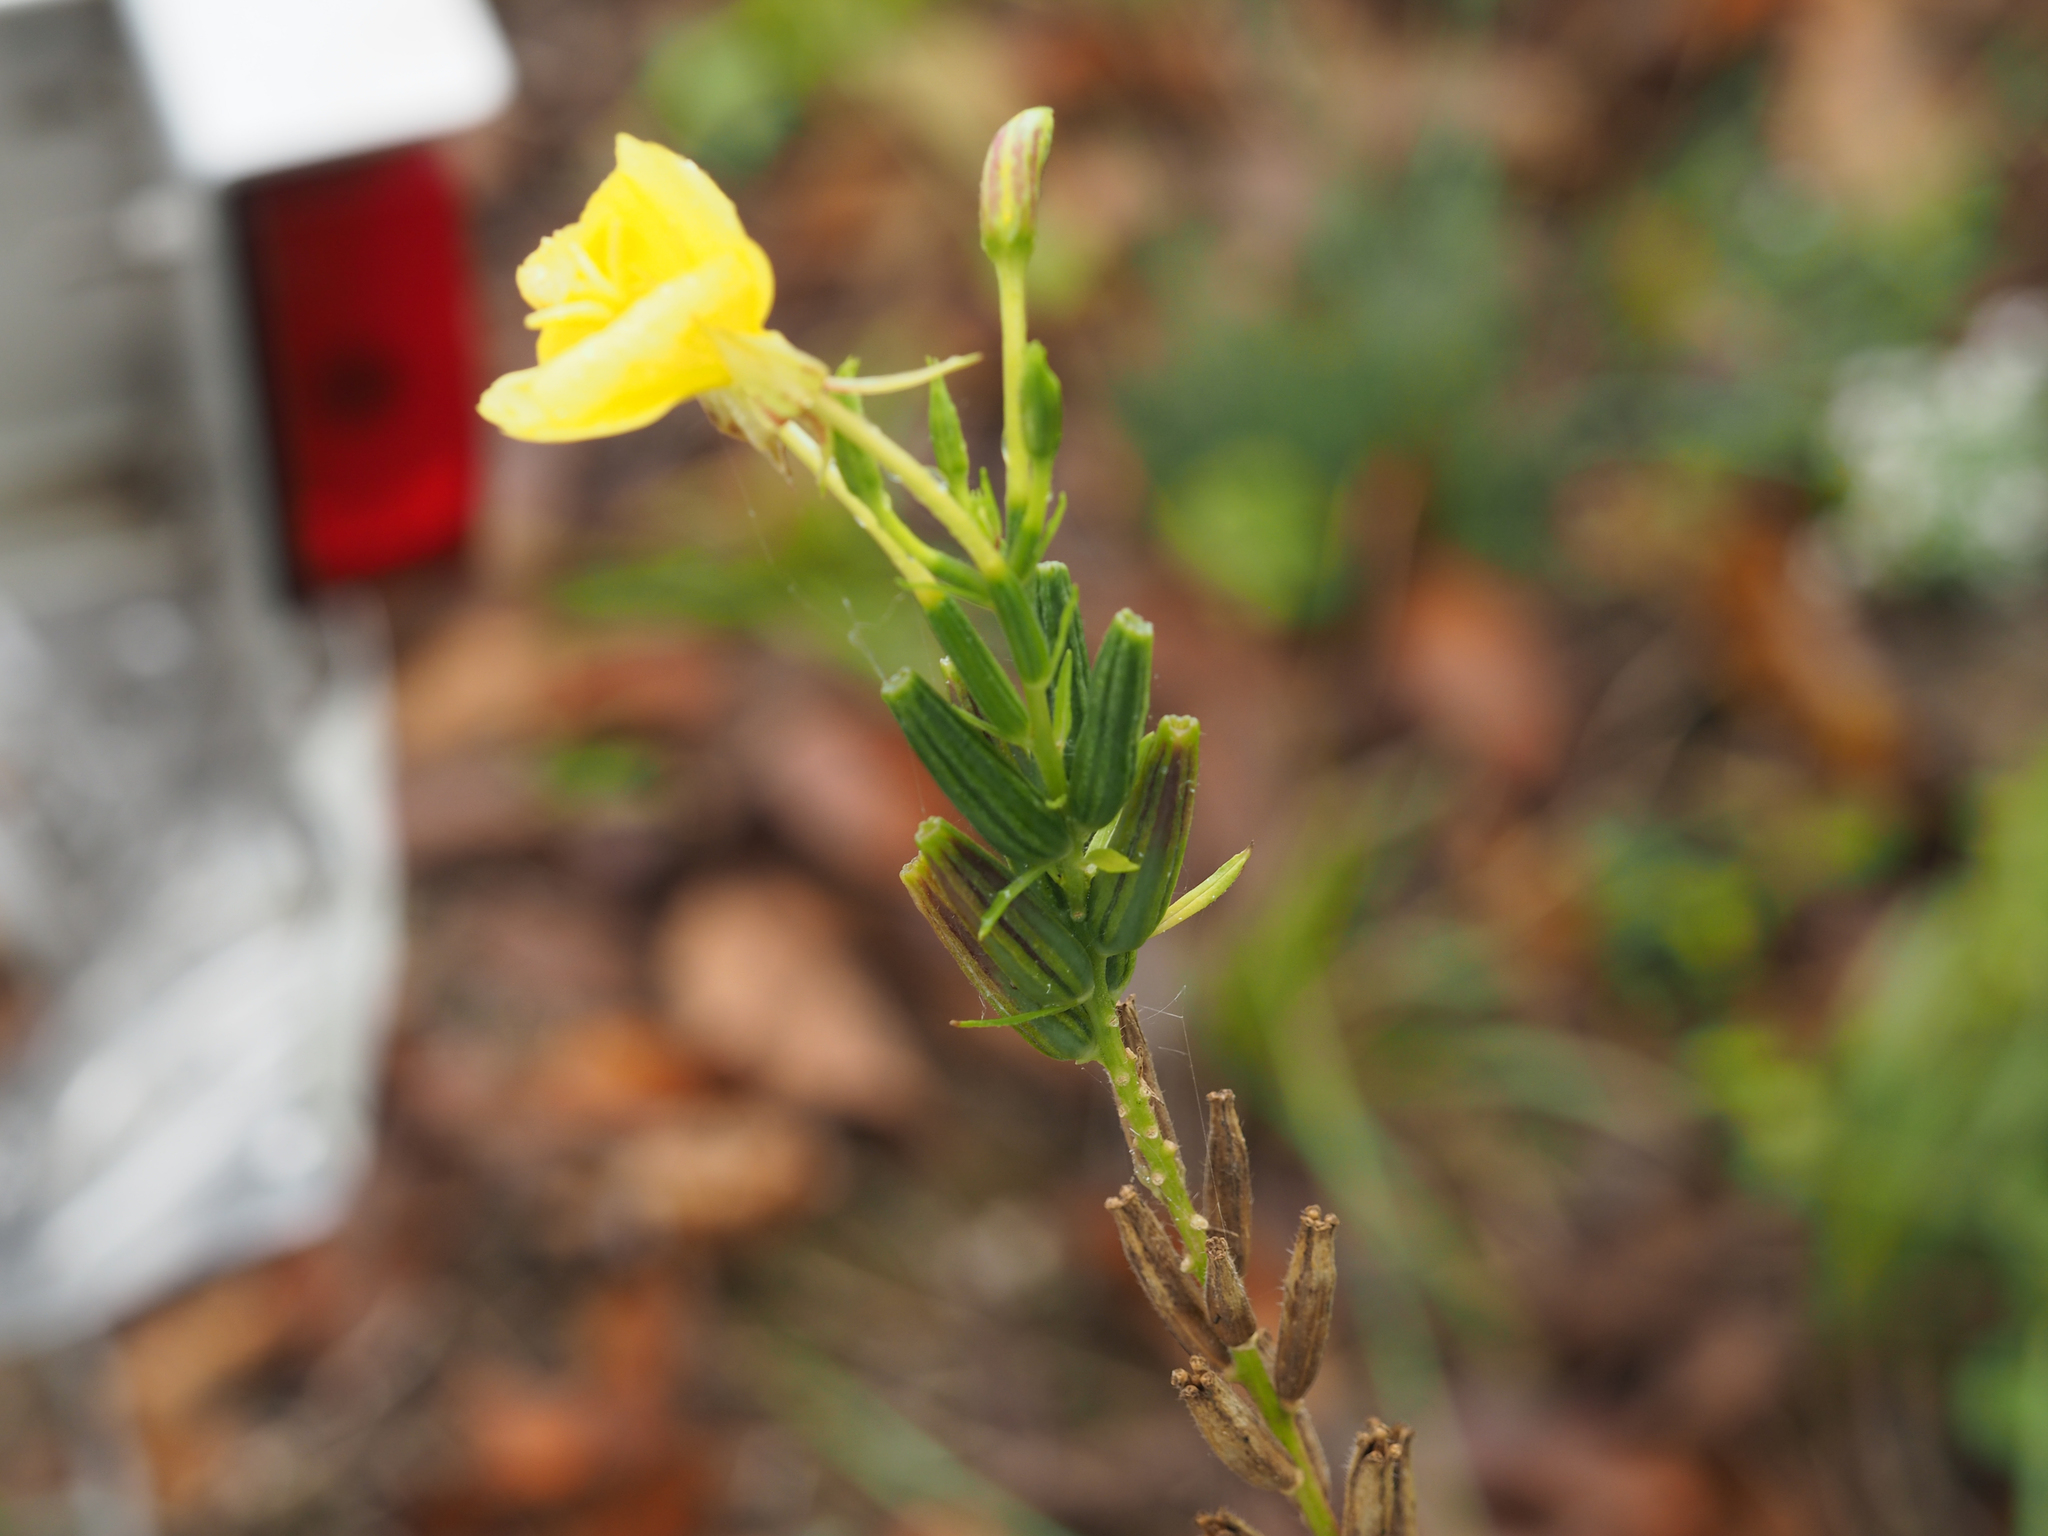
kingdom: Plantae
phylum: Tracheophyta
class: Magnoliopsida
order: Myrtales
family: Onagraceae
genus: Oenothera
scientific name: Oenothera biennis
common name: Common evening-primrose
